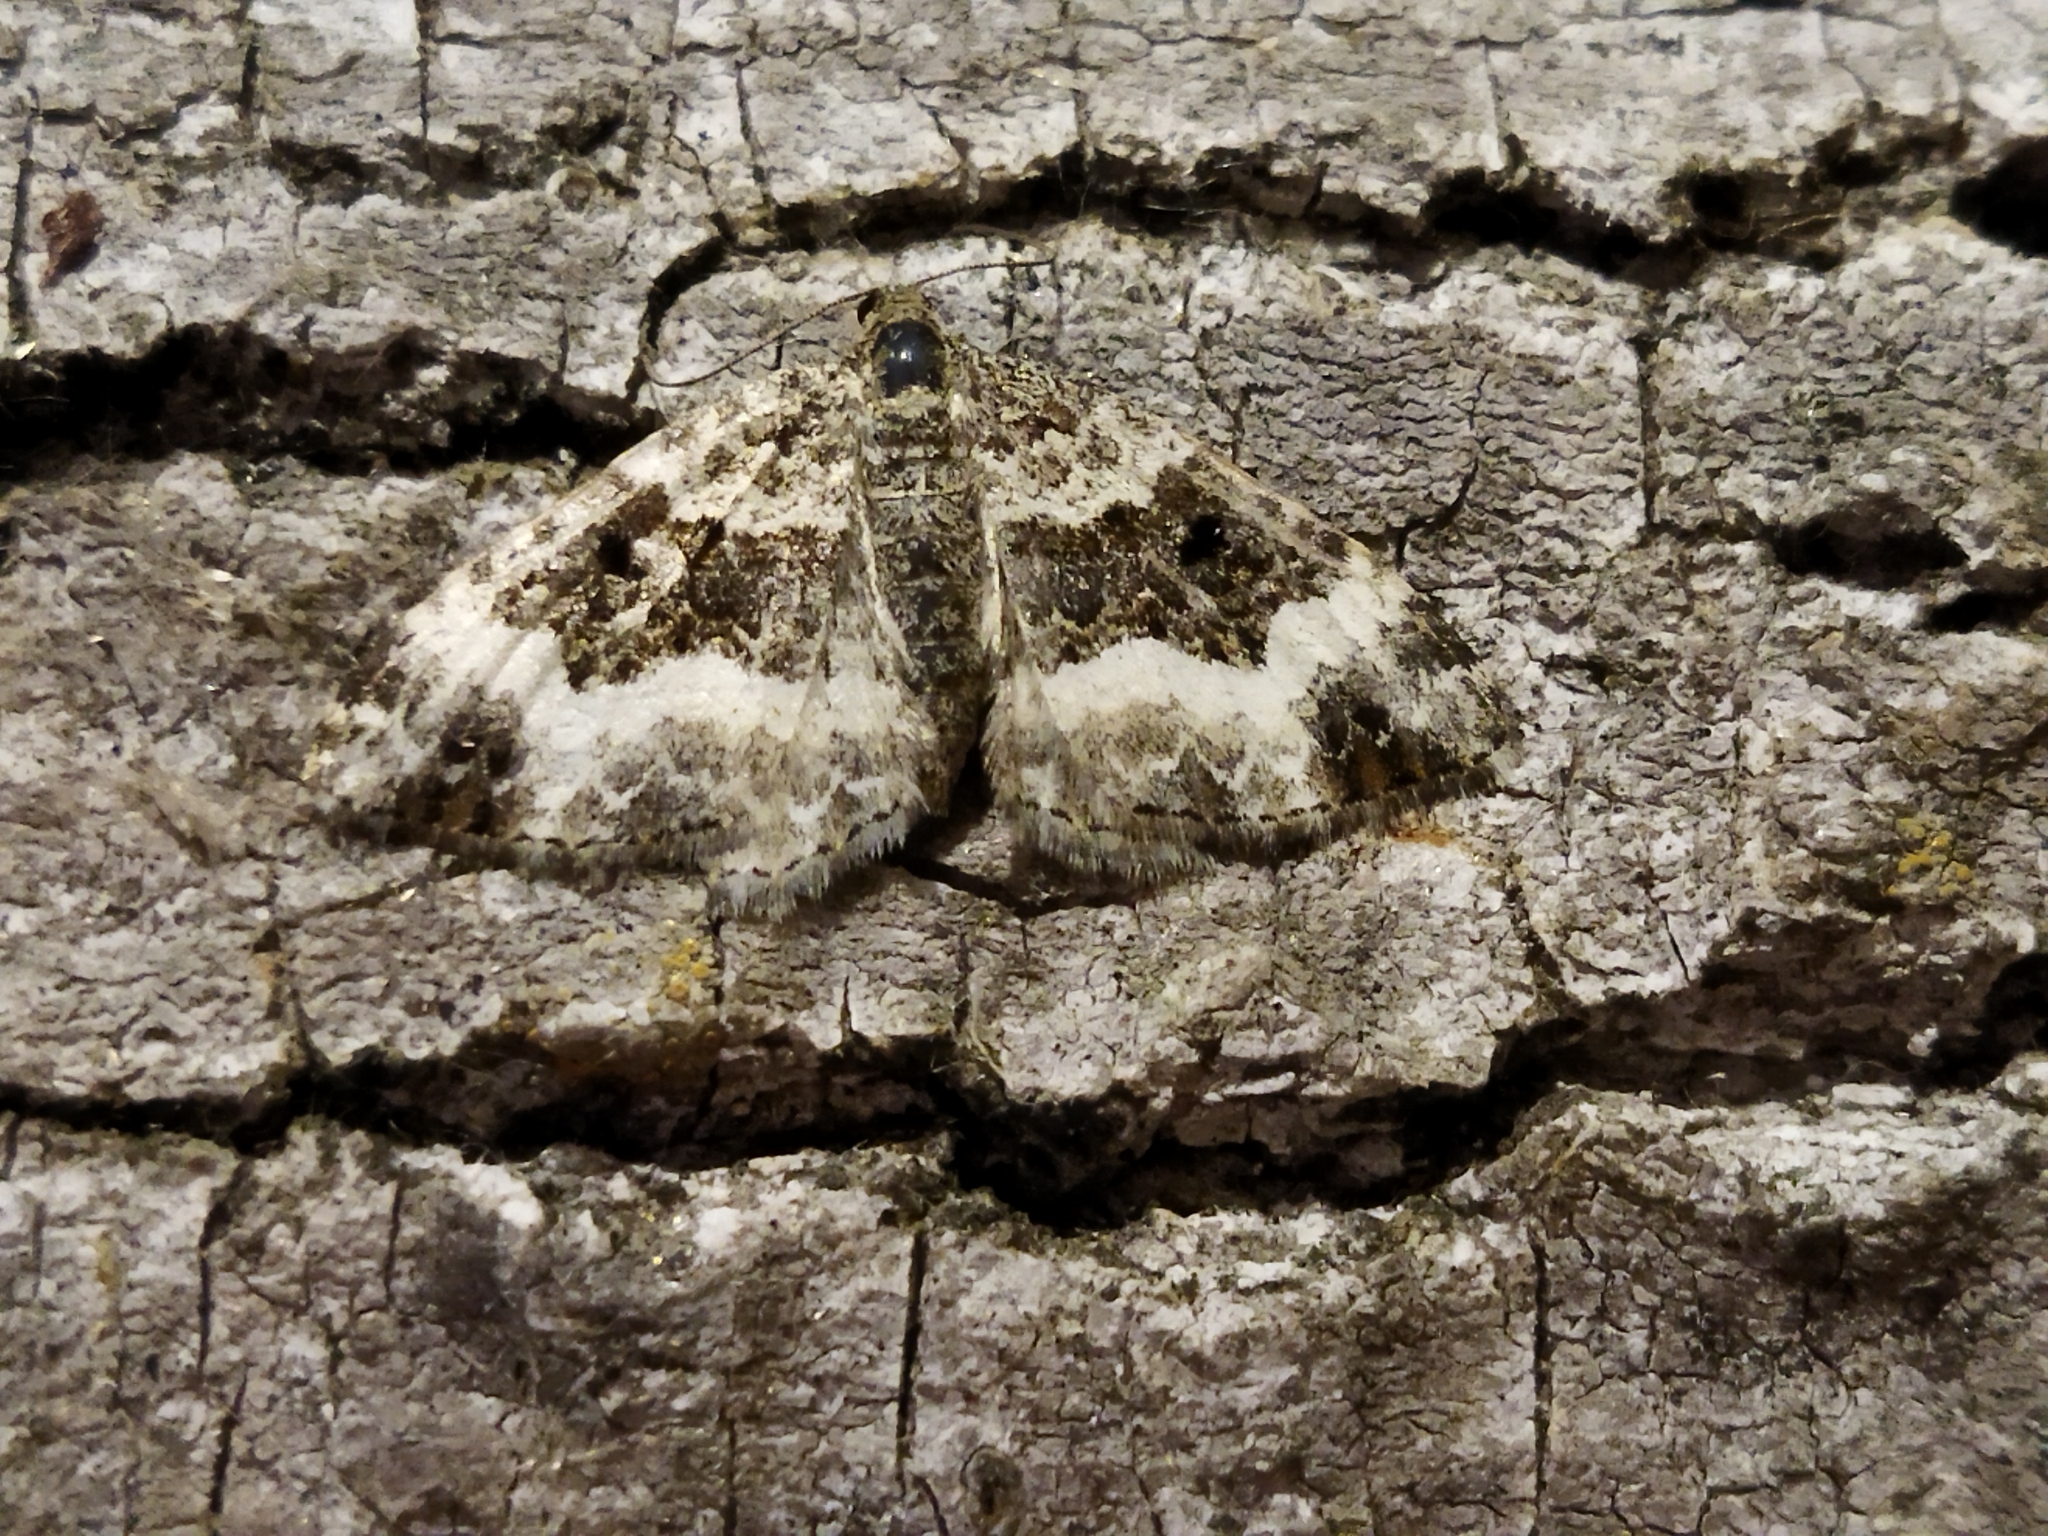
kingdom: Animalia
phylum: Arthropoda
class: Insecta
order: Lepidoptera
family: Geometridae
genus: Epirrhoe
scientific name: Epirrhoe alternata
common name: Common carpet
